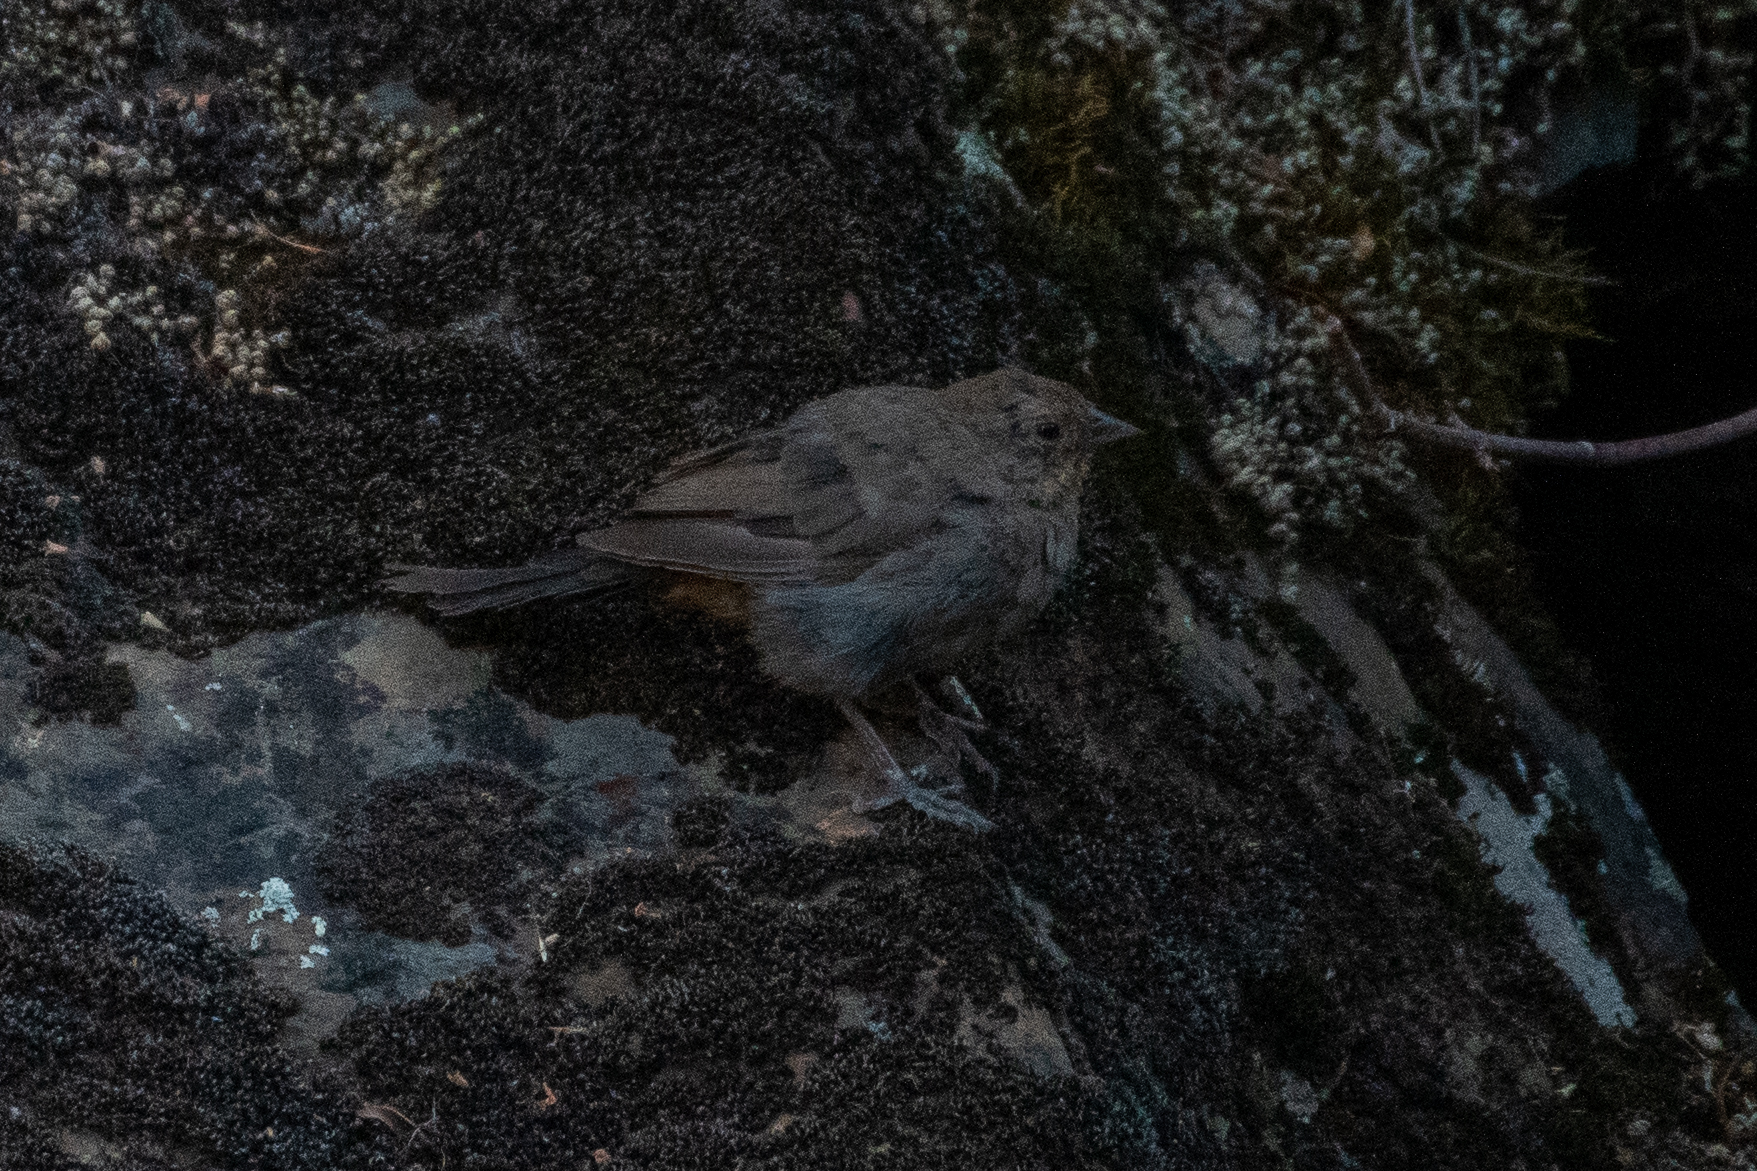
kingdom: Animalia
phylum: Chordata
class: Aves
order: Passeriformes
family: Passerellidae
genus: Melozone
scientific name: Melozone crissalis
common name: California towhee
